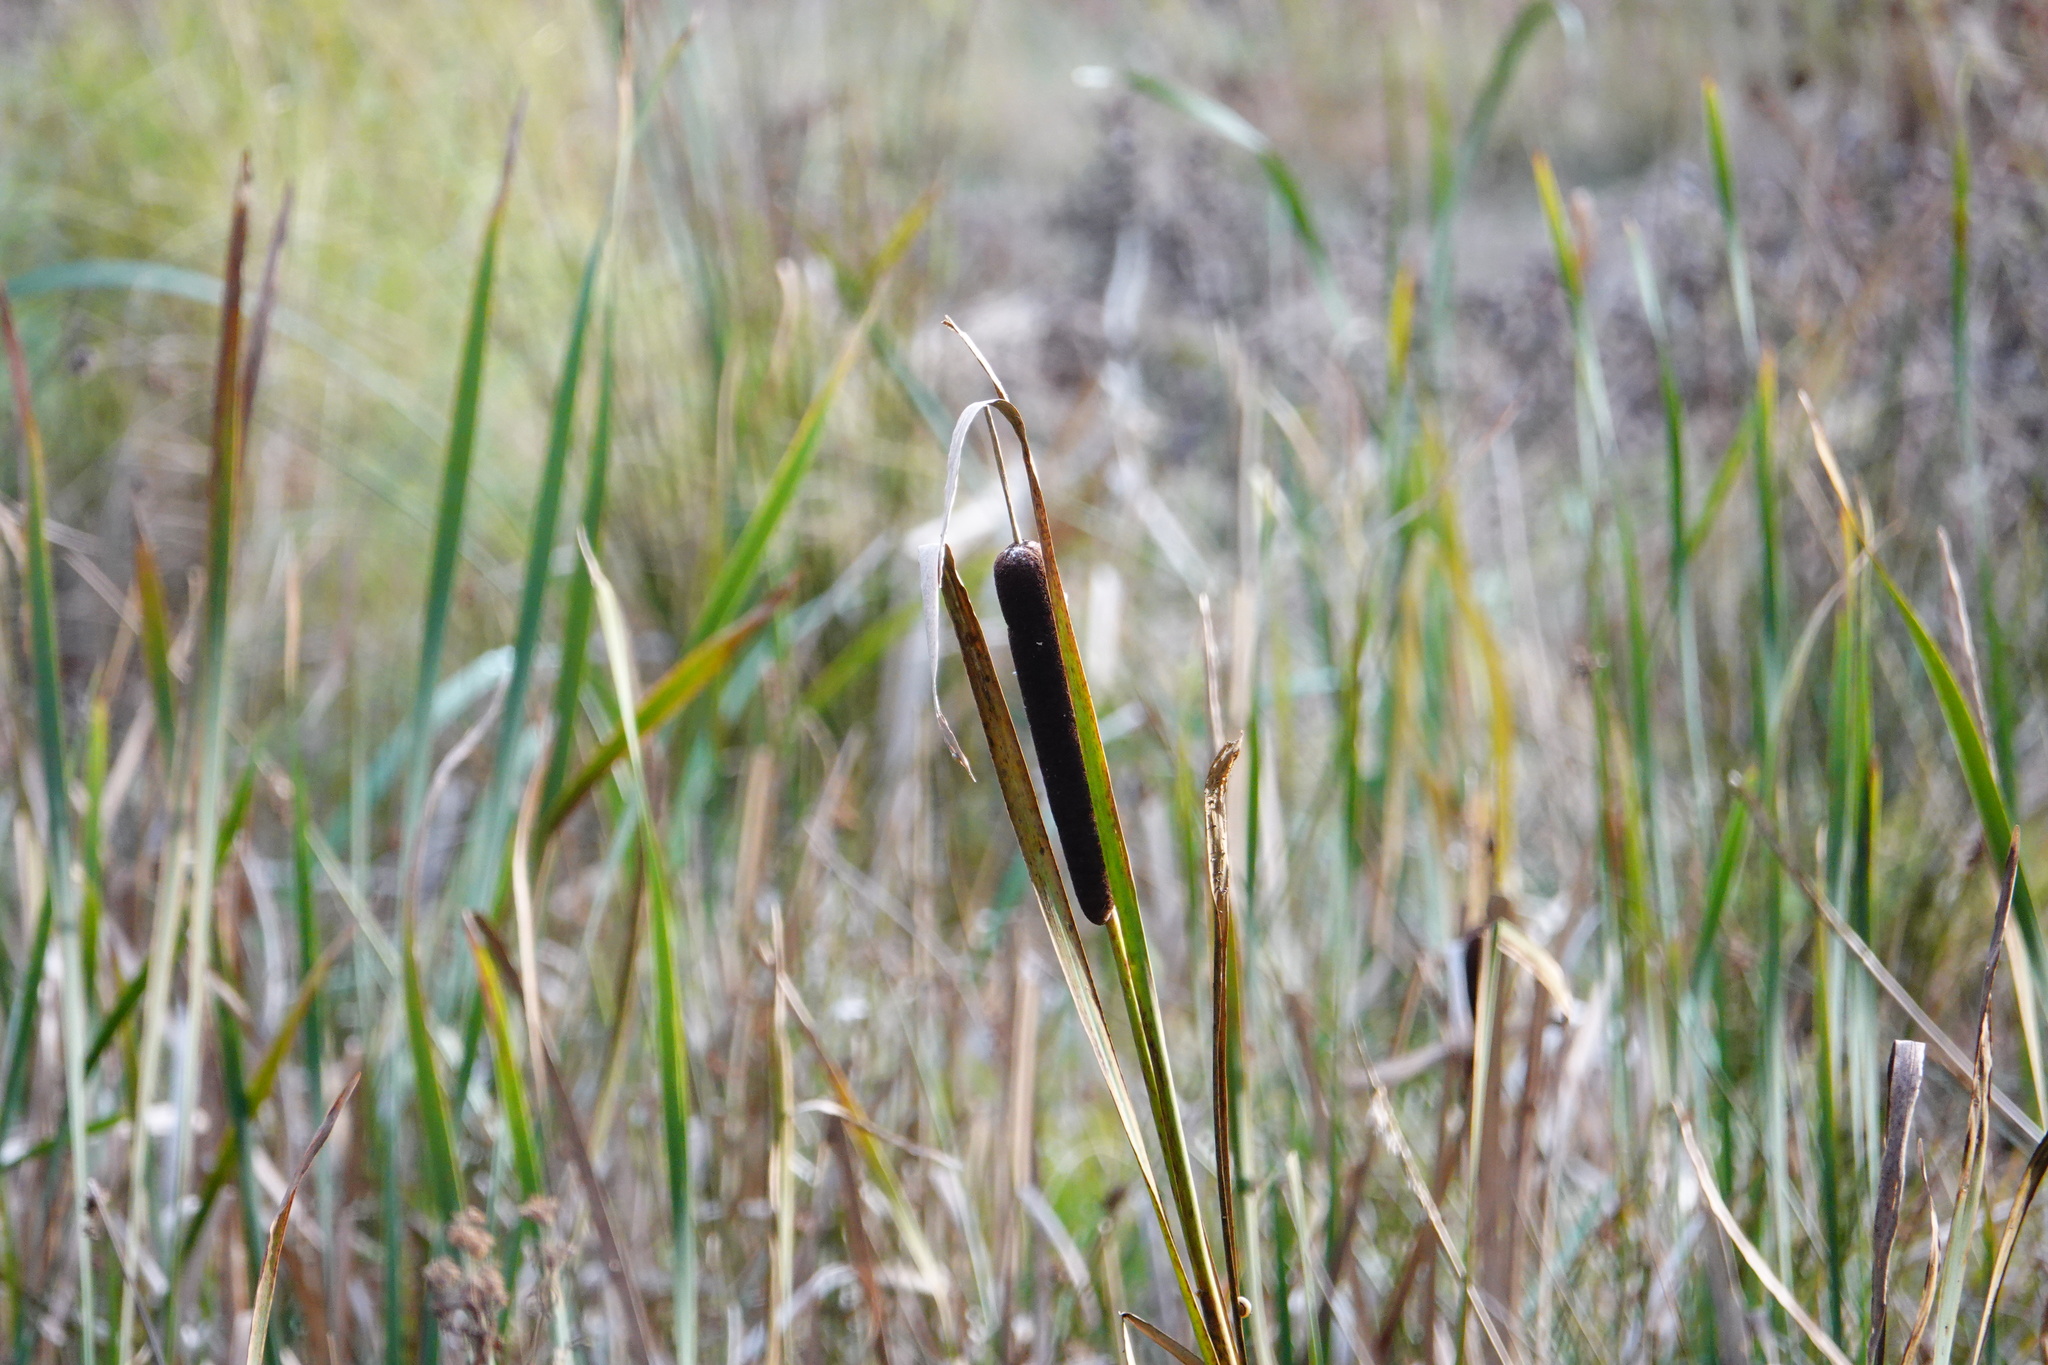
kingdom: Plantae
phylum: Tracheophyta
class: Liliopsida
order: Poales
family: Typhaceae
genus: Typha
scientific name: Typha latifolia
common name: Broadleaf cattail
